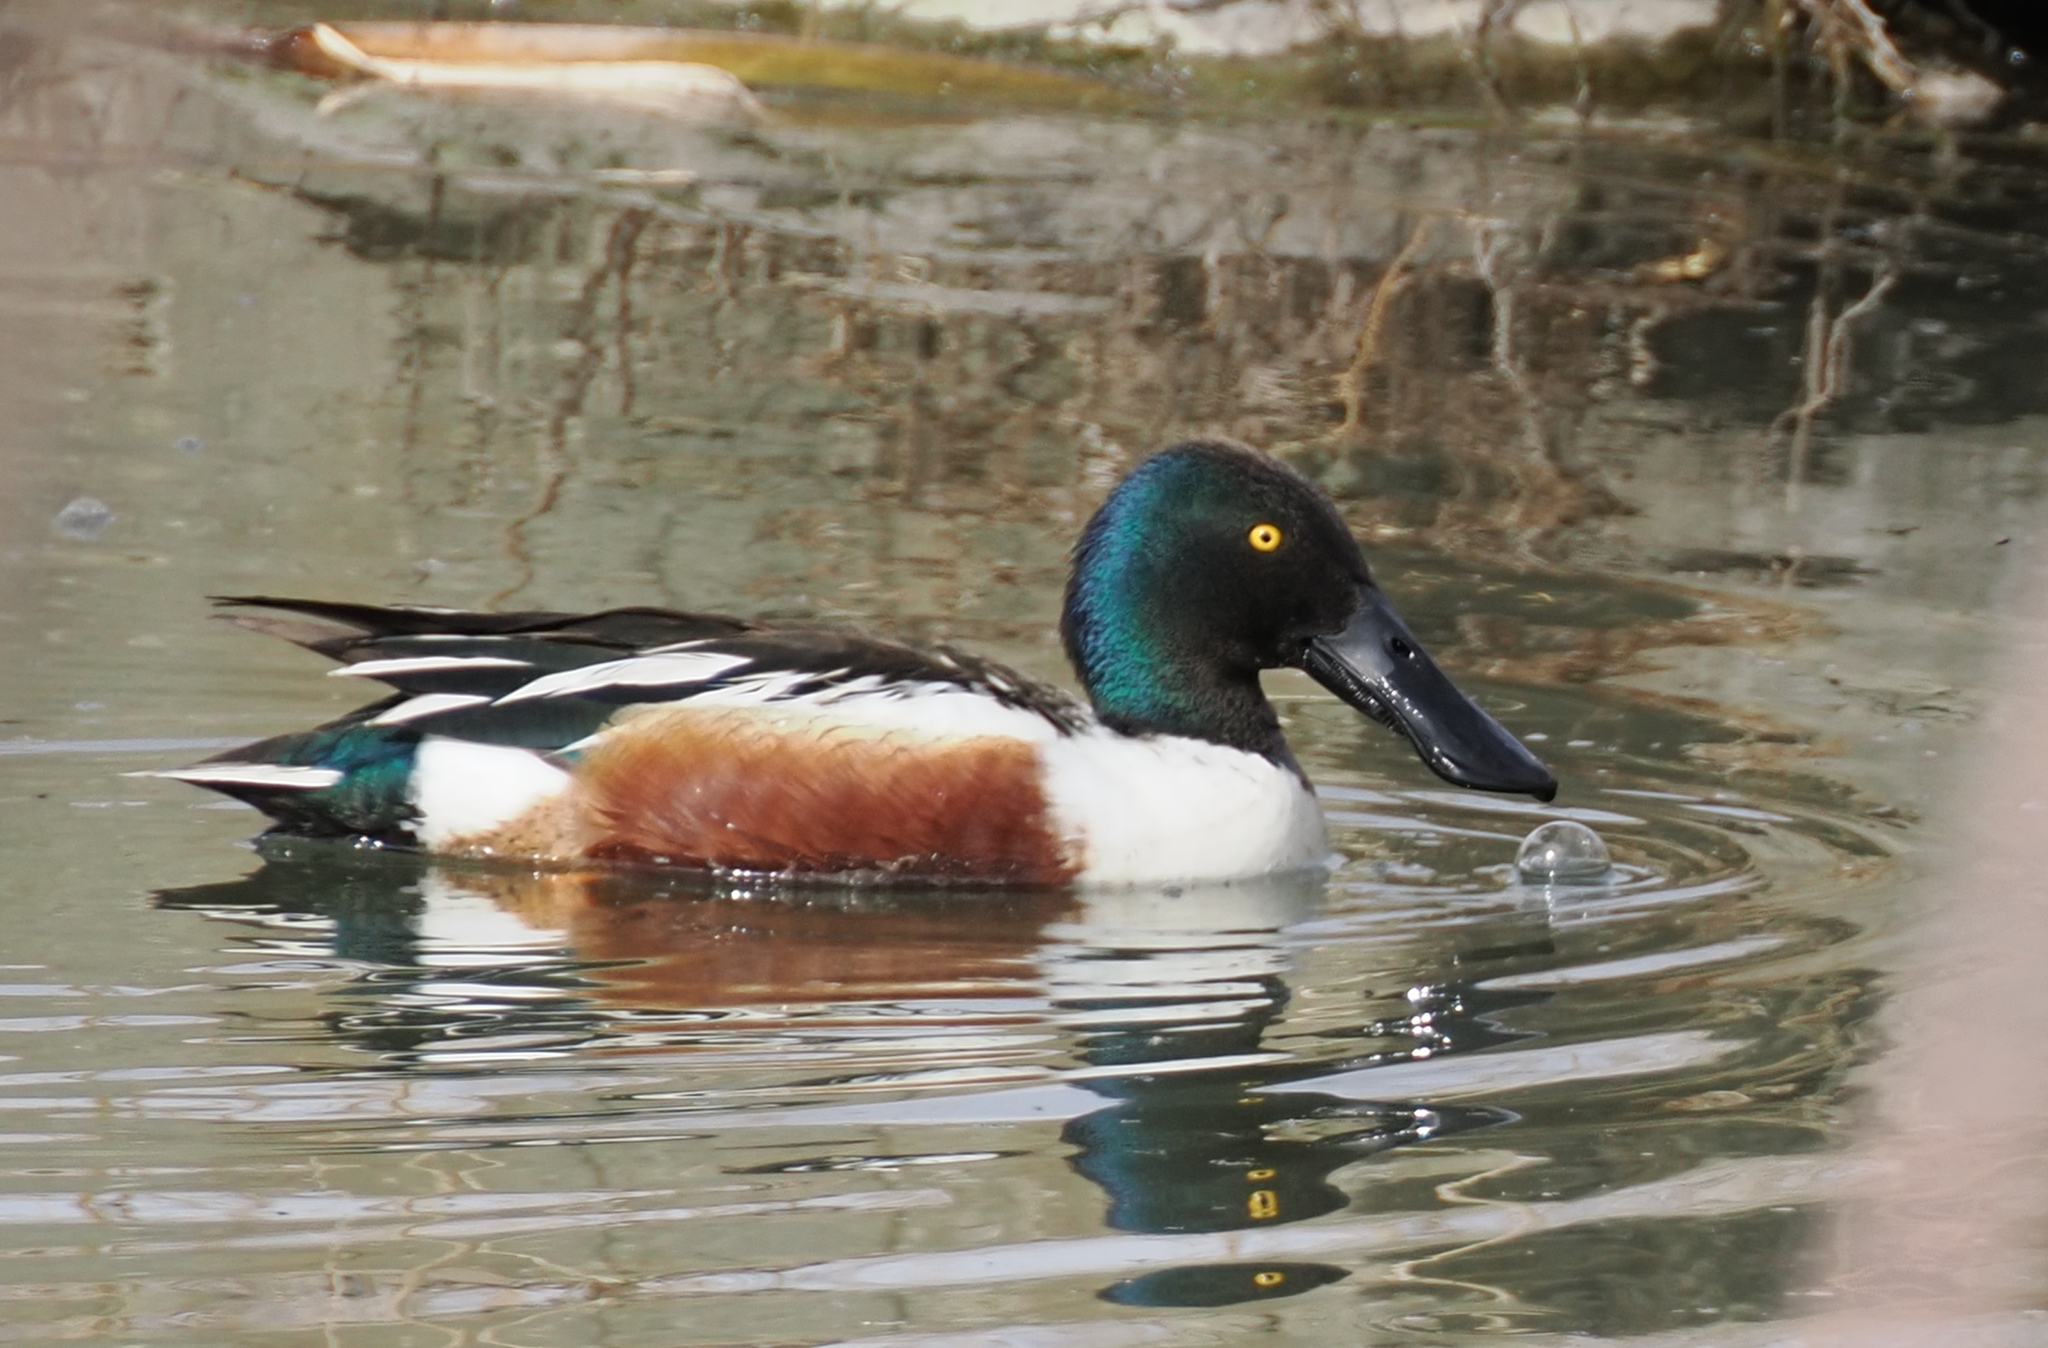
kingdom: Animalia
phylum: Chordata
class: Aves
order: Anseriformes
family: Anatidae
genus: Spatula
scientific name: Spatula clypeata
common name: Northern shoveler
